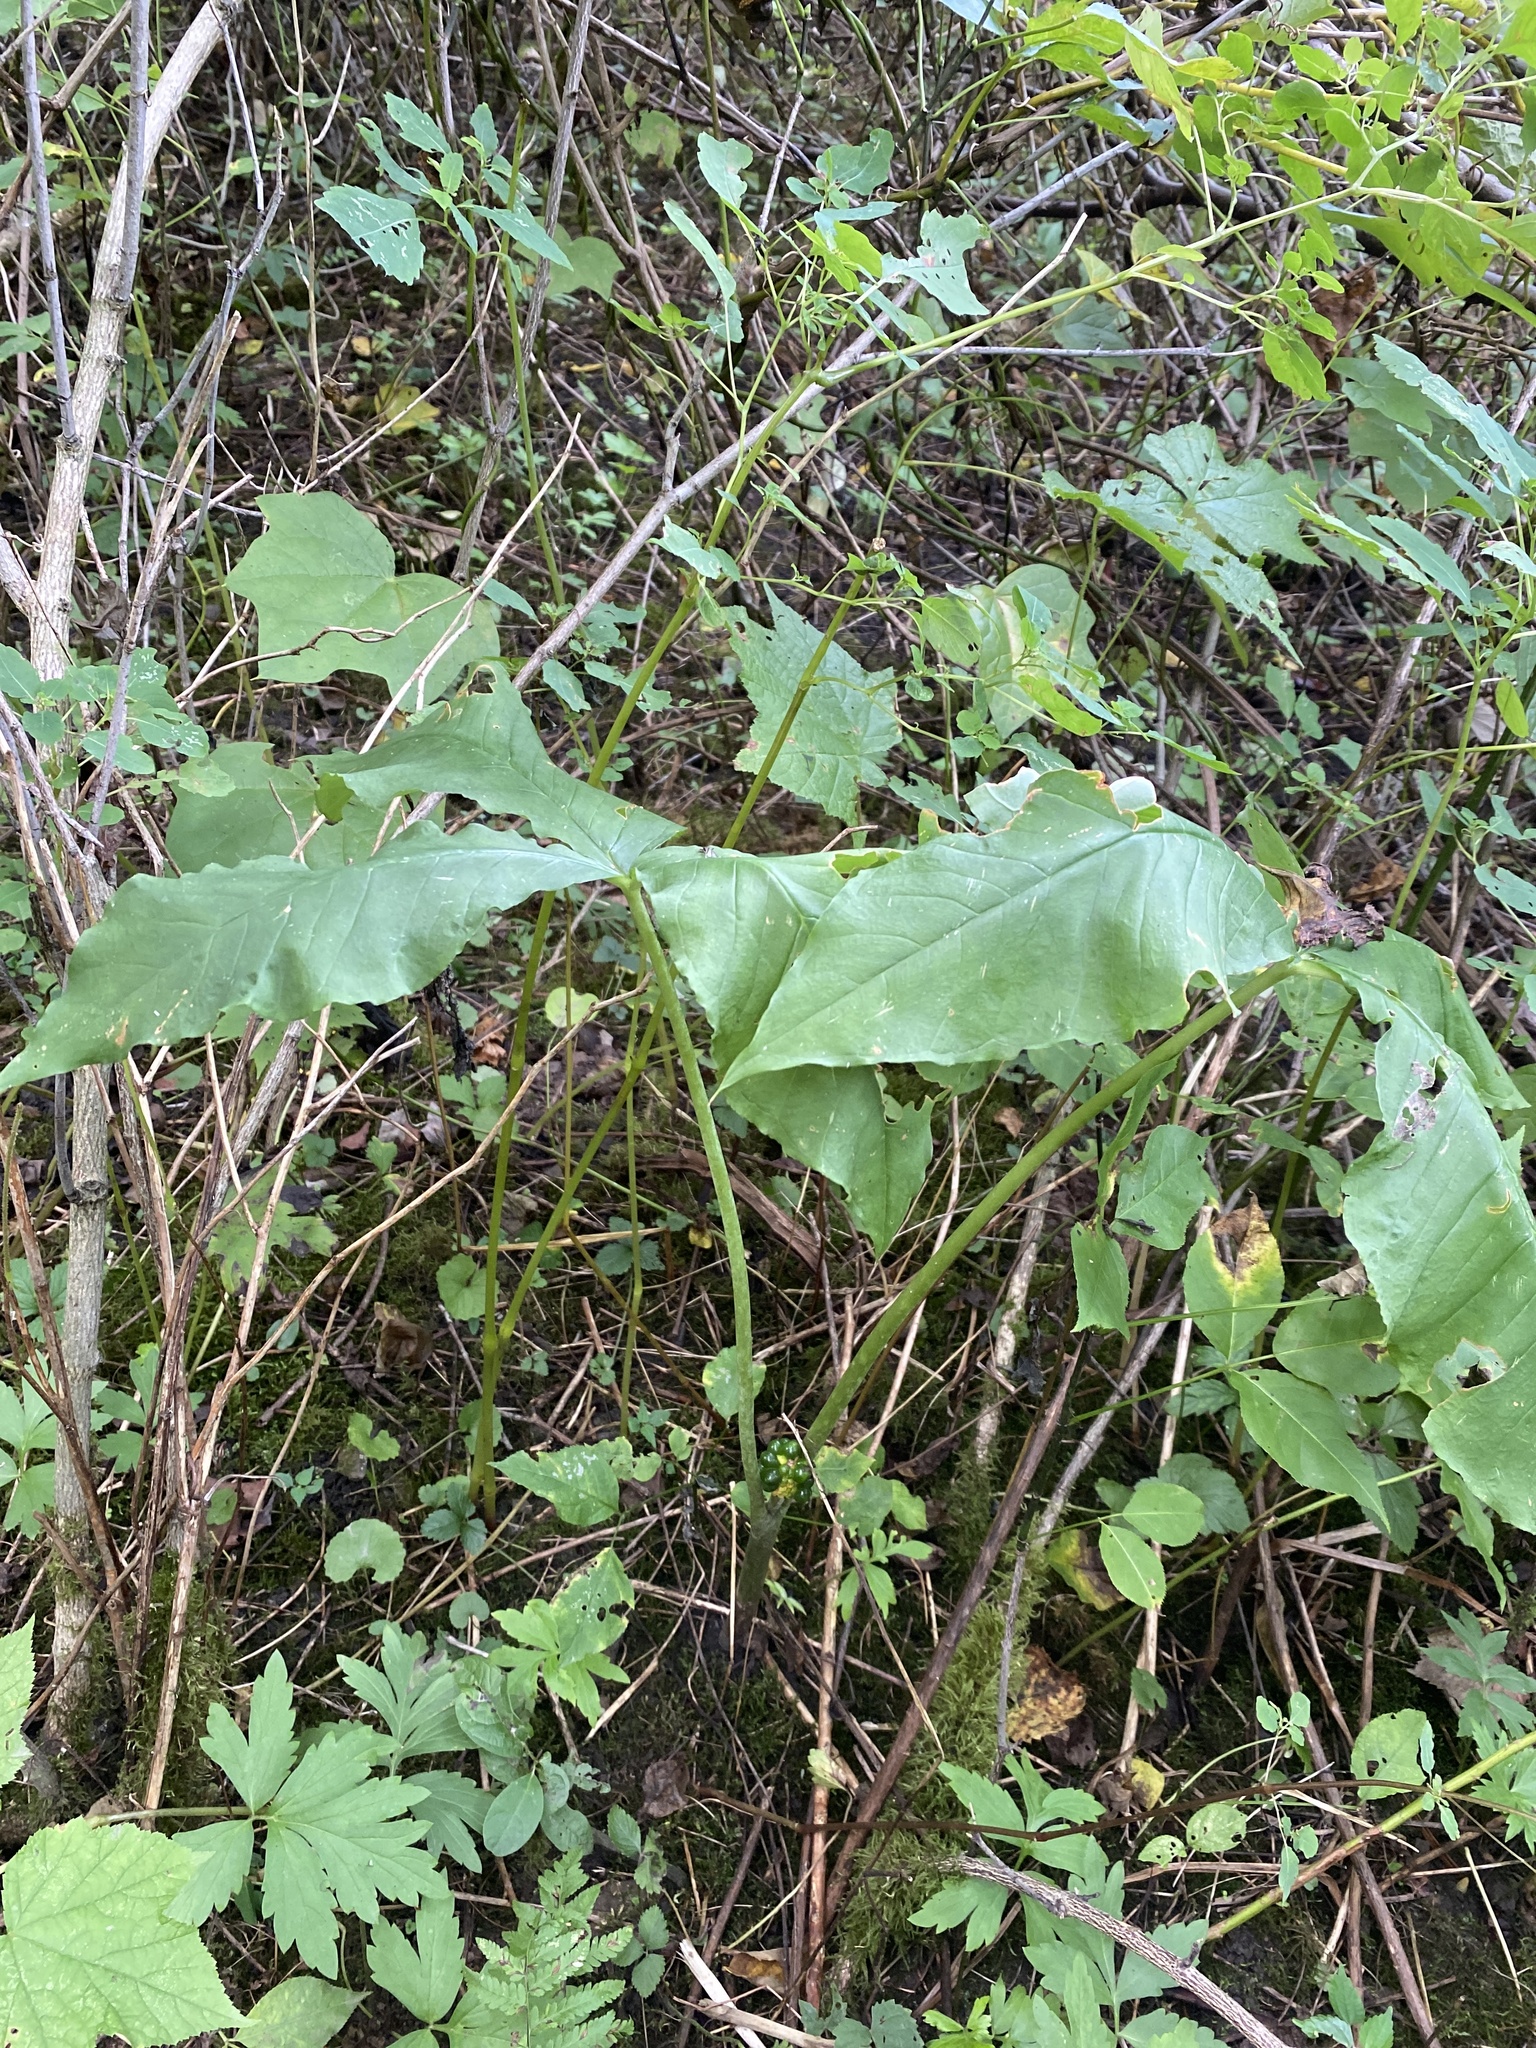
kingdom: Plantae
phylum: Tracheophyta
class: Liliopsida
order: Alismatales
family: Araceae
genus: Arisaema
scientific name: Arisaema triphyllum
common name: Jack-in-the-pulpit
